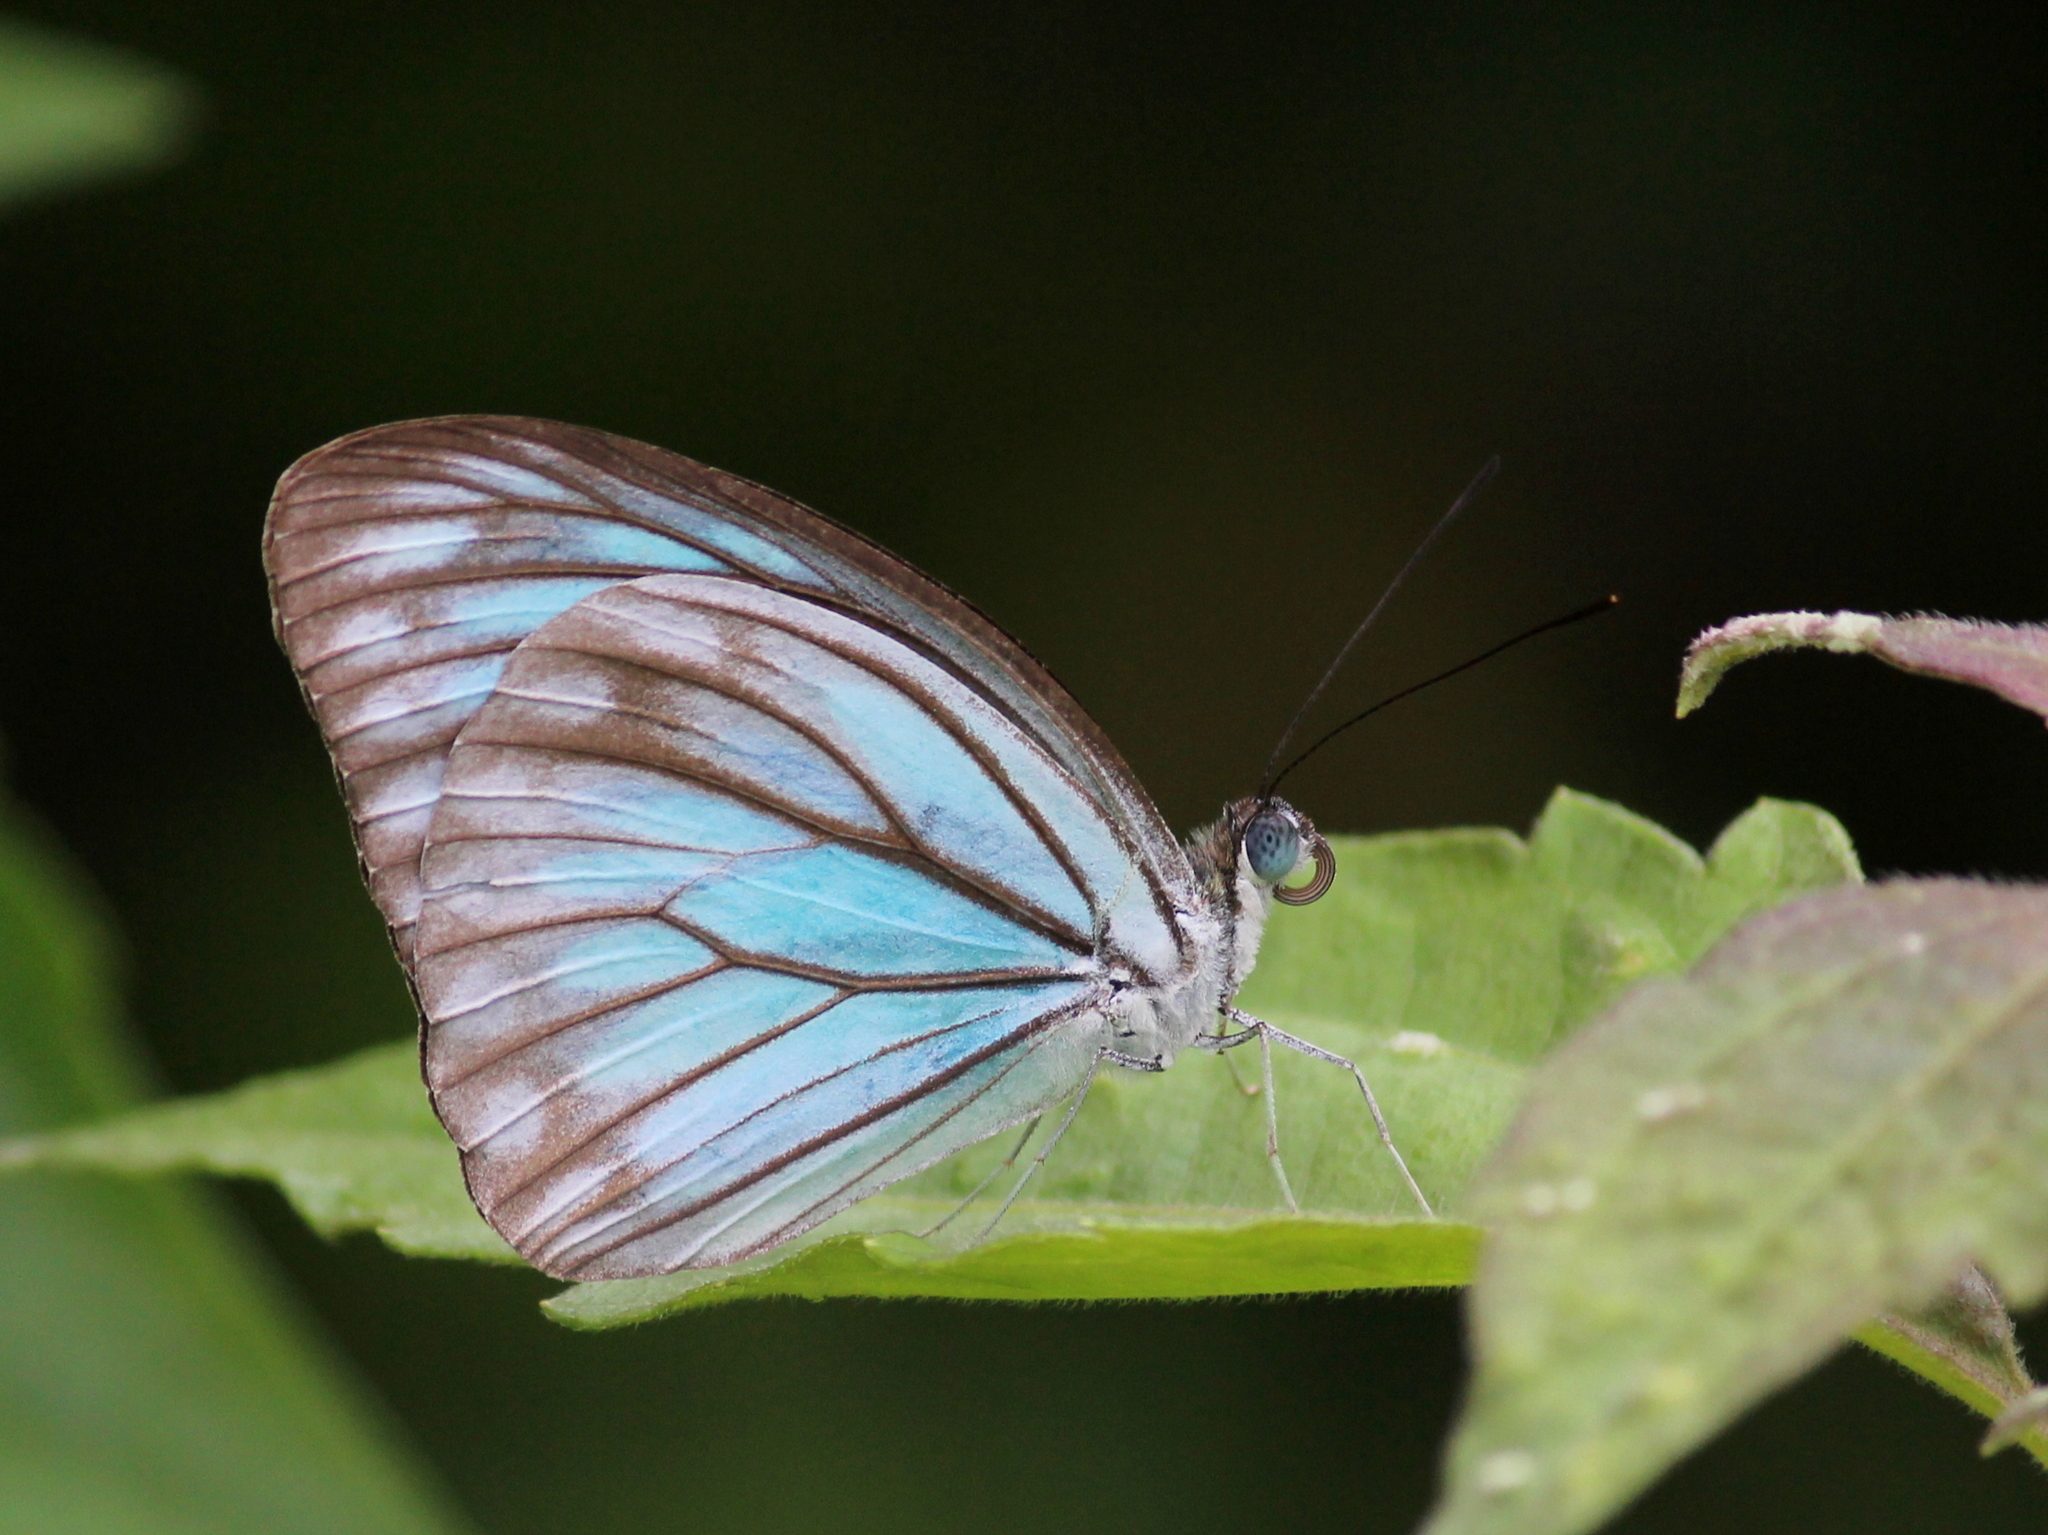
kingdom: Animalia
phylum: Arthropoda
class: Insecta
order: Lepidoptera
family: Pieridae
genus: Pareronia
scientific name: Pareronia hippia
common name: Indian wanderer
